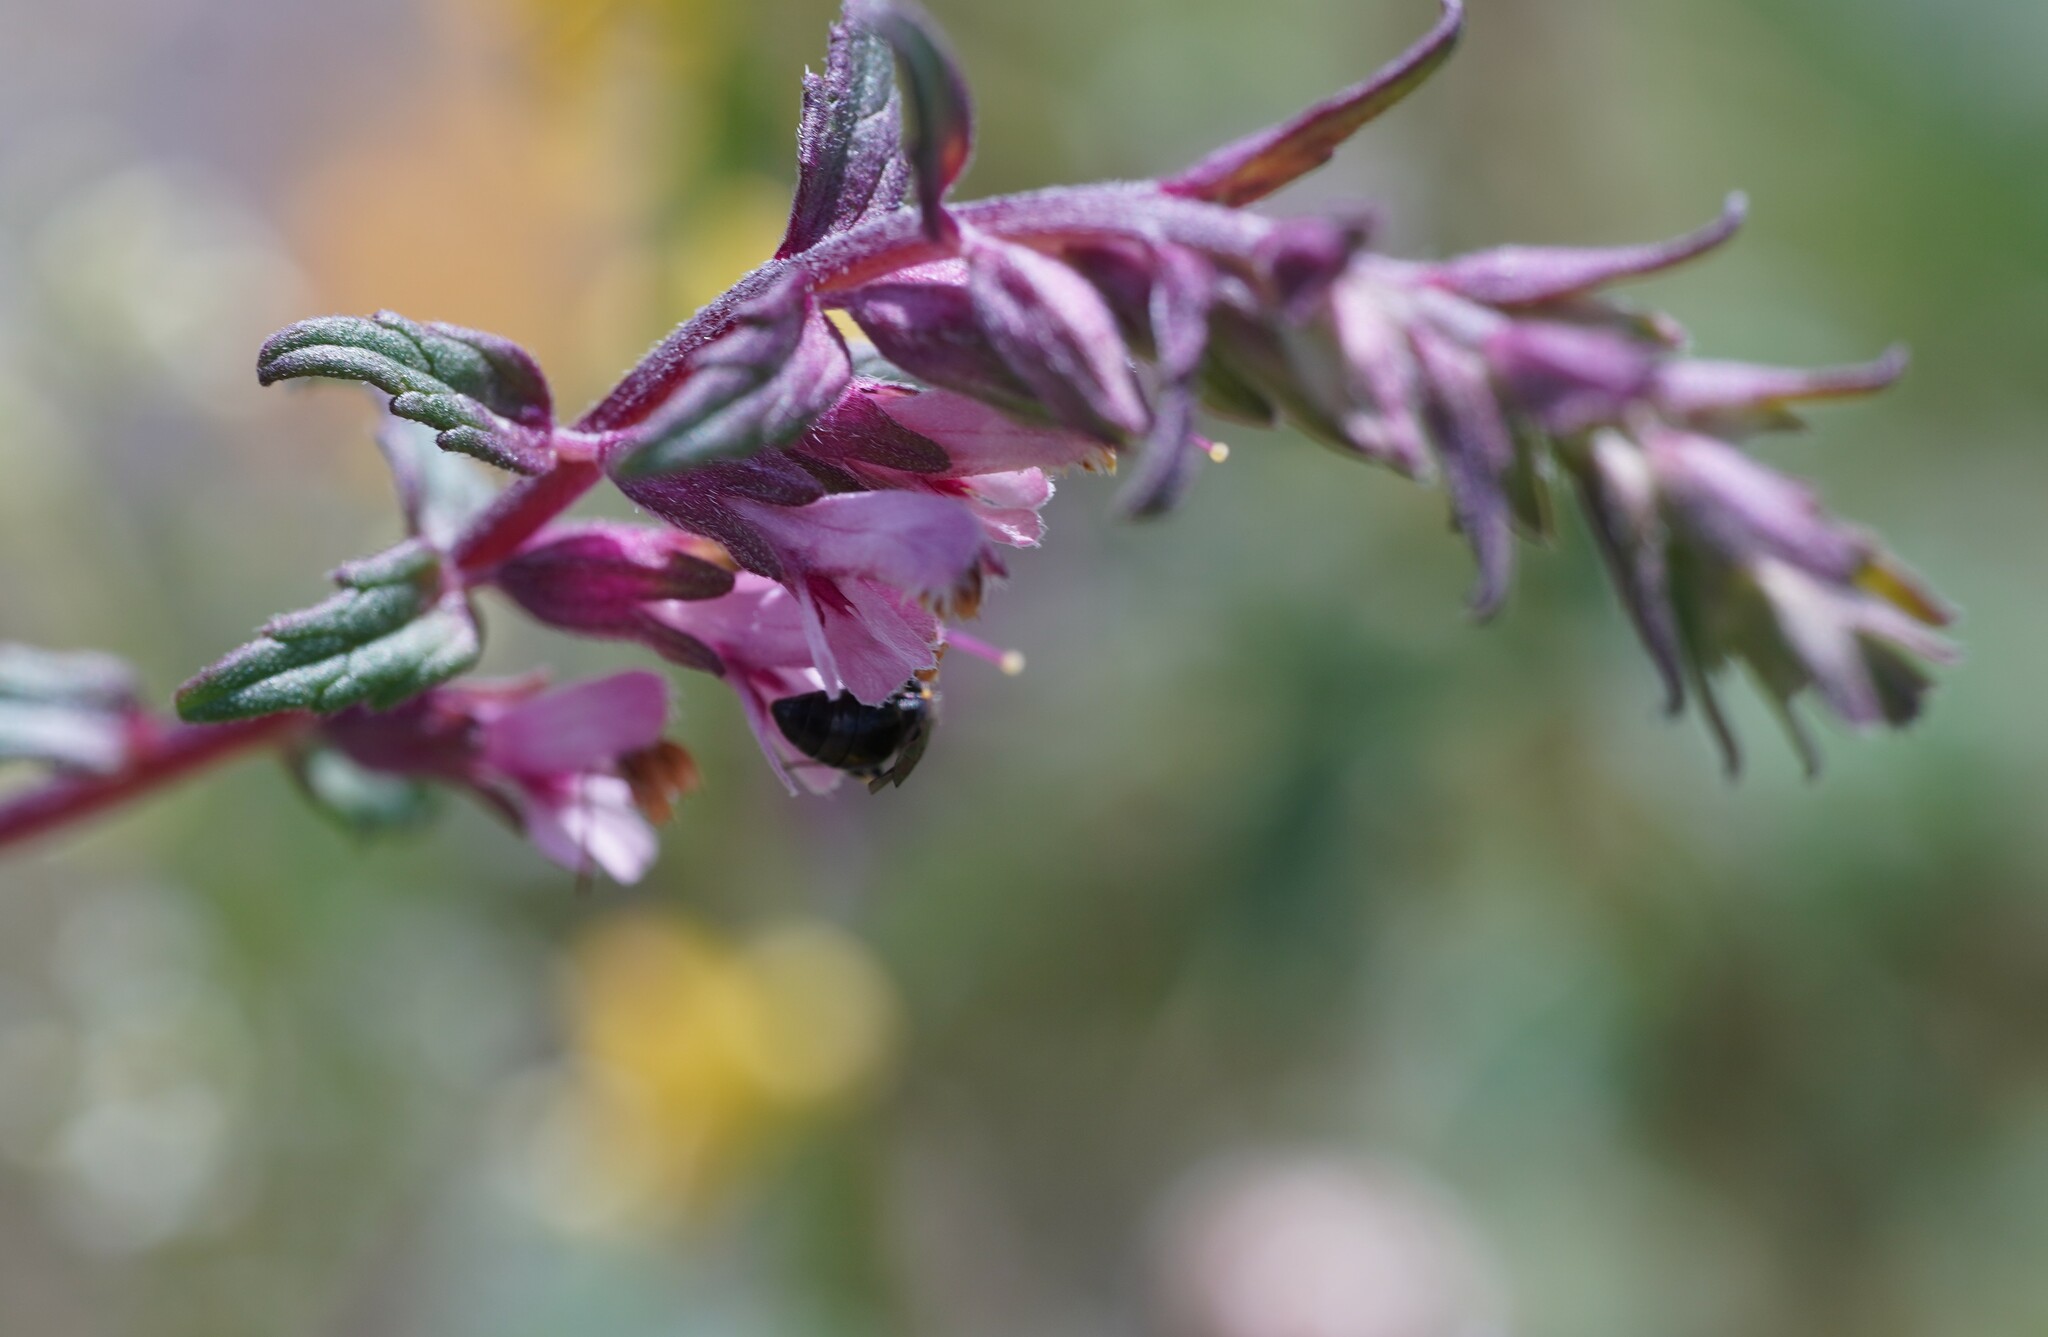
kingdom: Plantae
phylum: Tracheophyta
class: Magnoliopsida
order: Lamiales
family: Orobanchaceae
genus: Odontites
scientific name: Odontites vulgaris
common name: Broomrape
